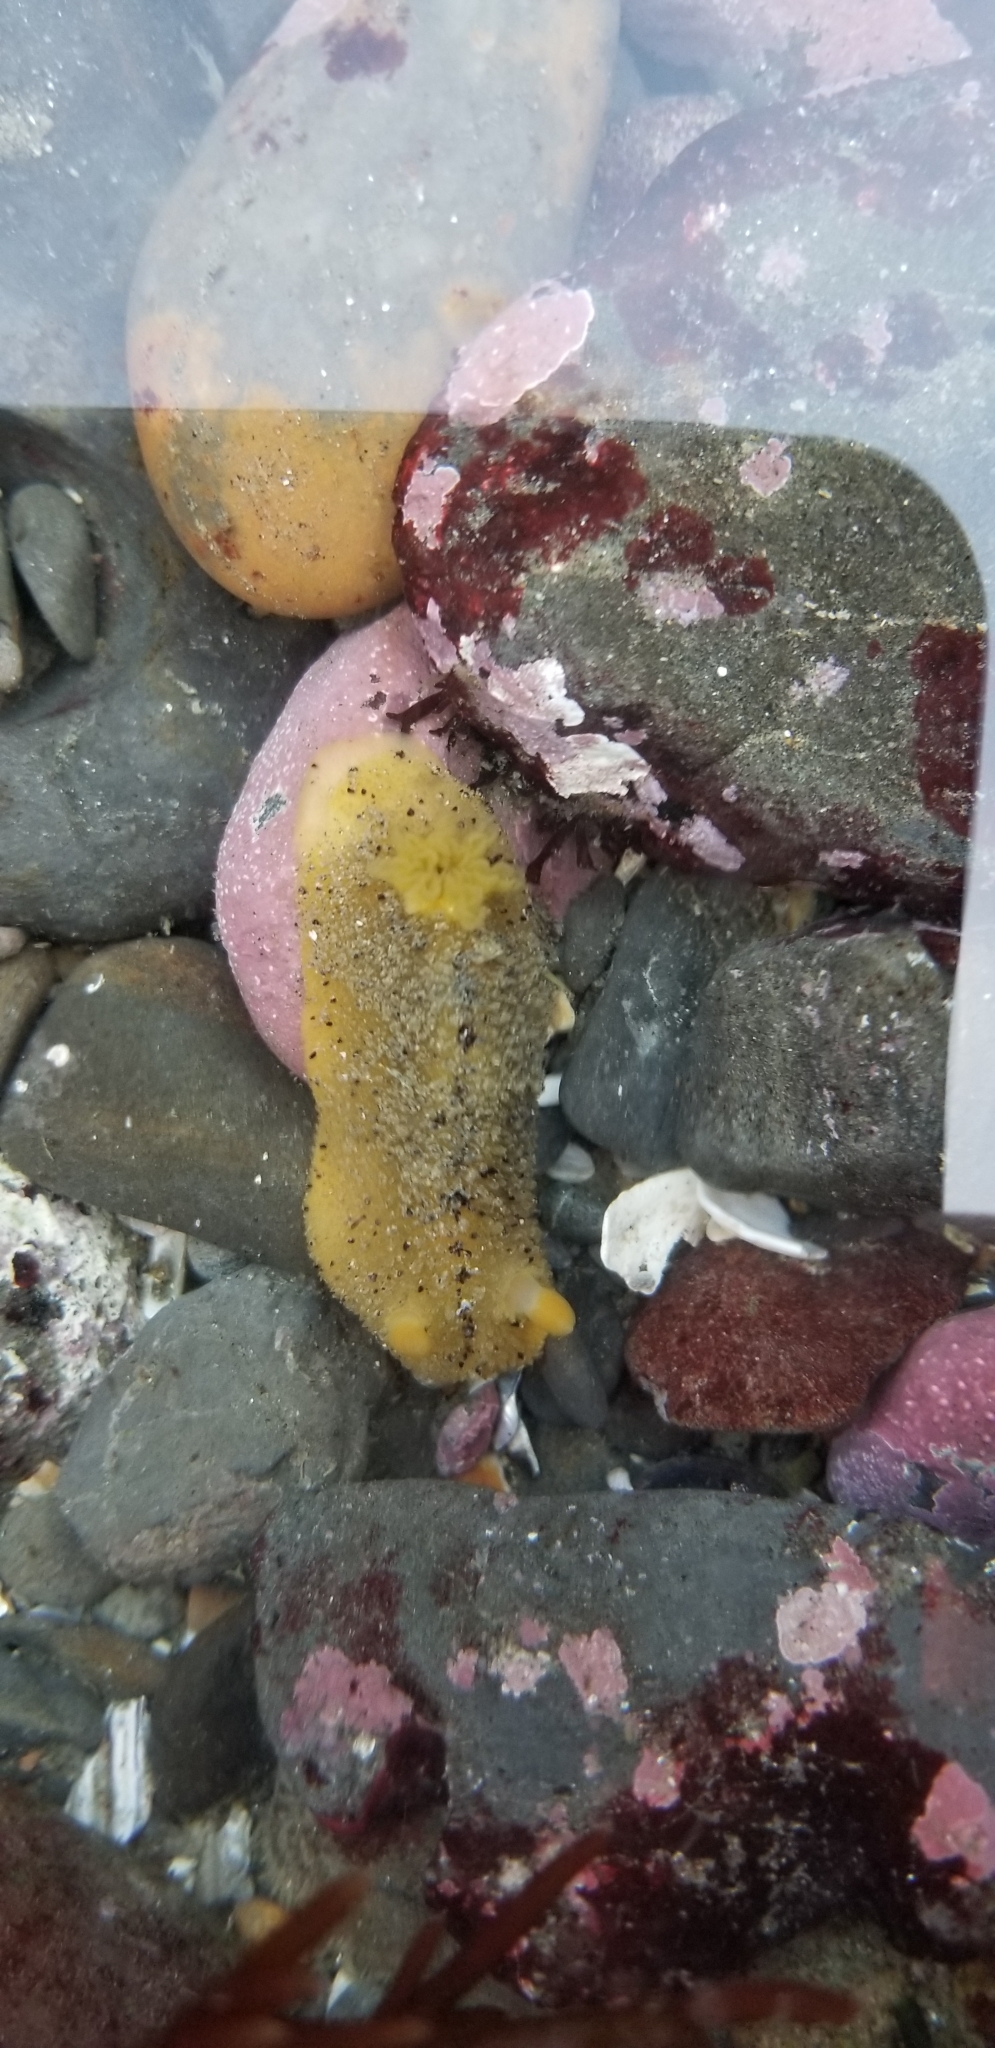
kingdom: Animalia
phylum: Mollusca
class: Gastropoda
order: Nudibranchia
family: Dorididae
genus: Doris
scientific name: Doris montereyensis
